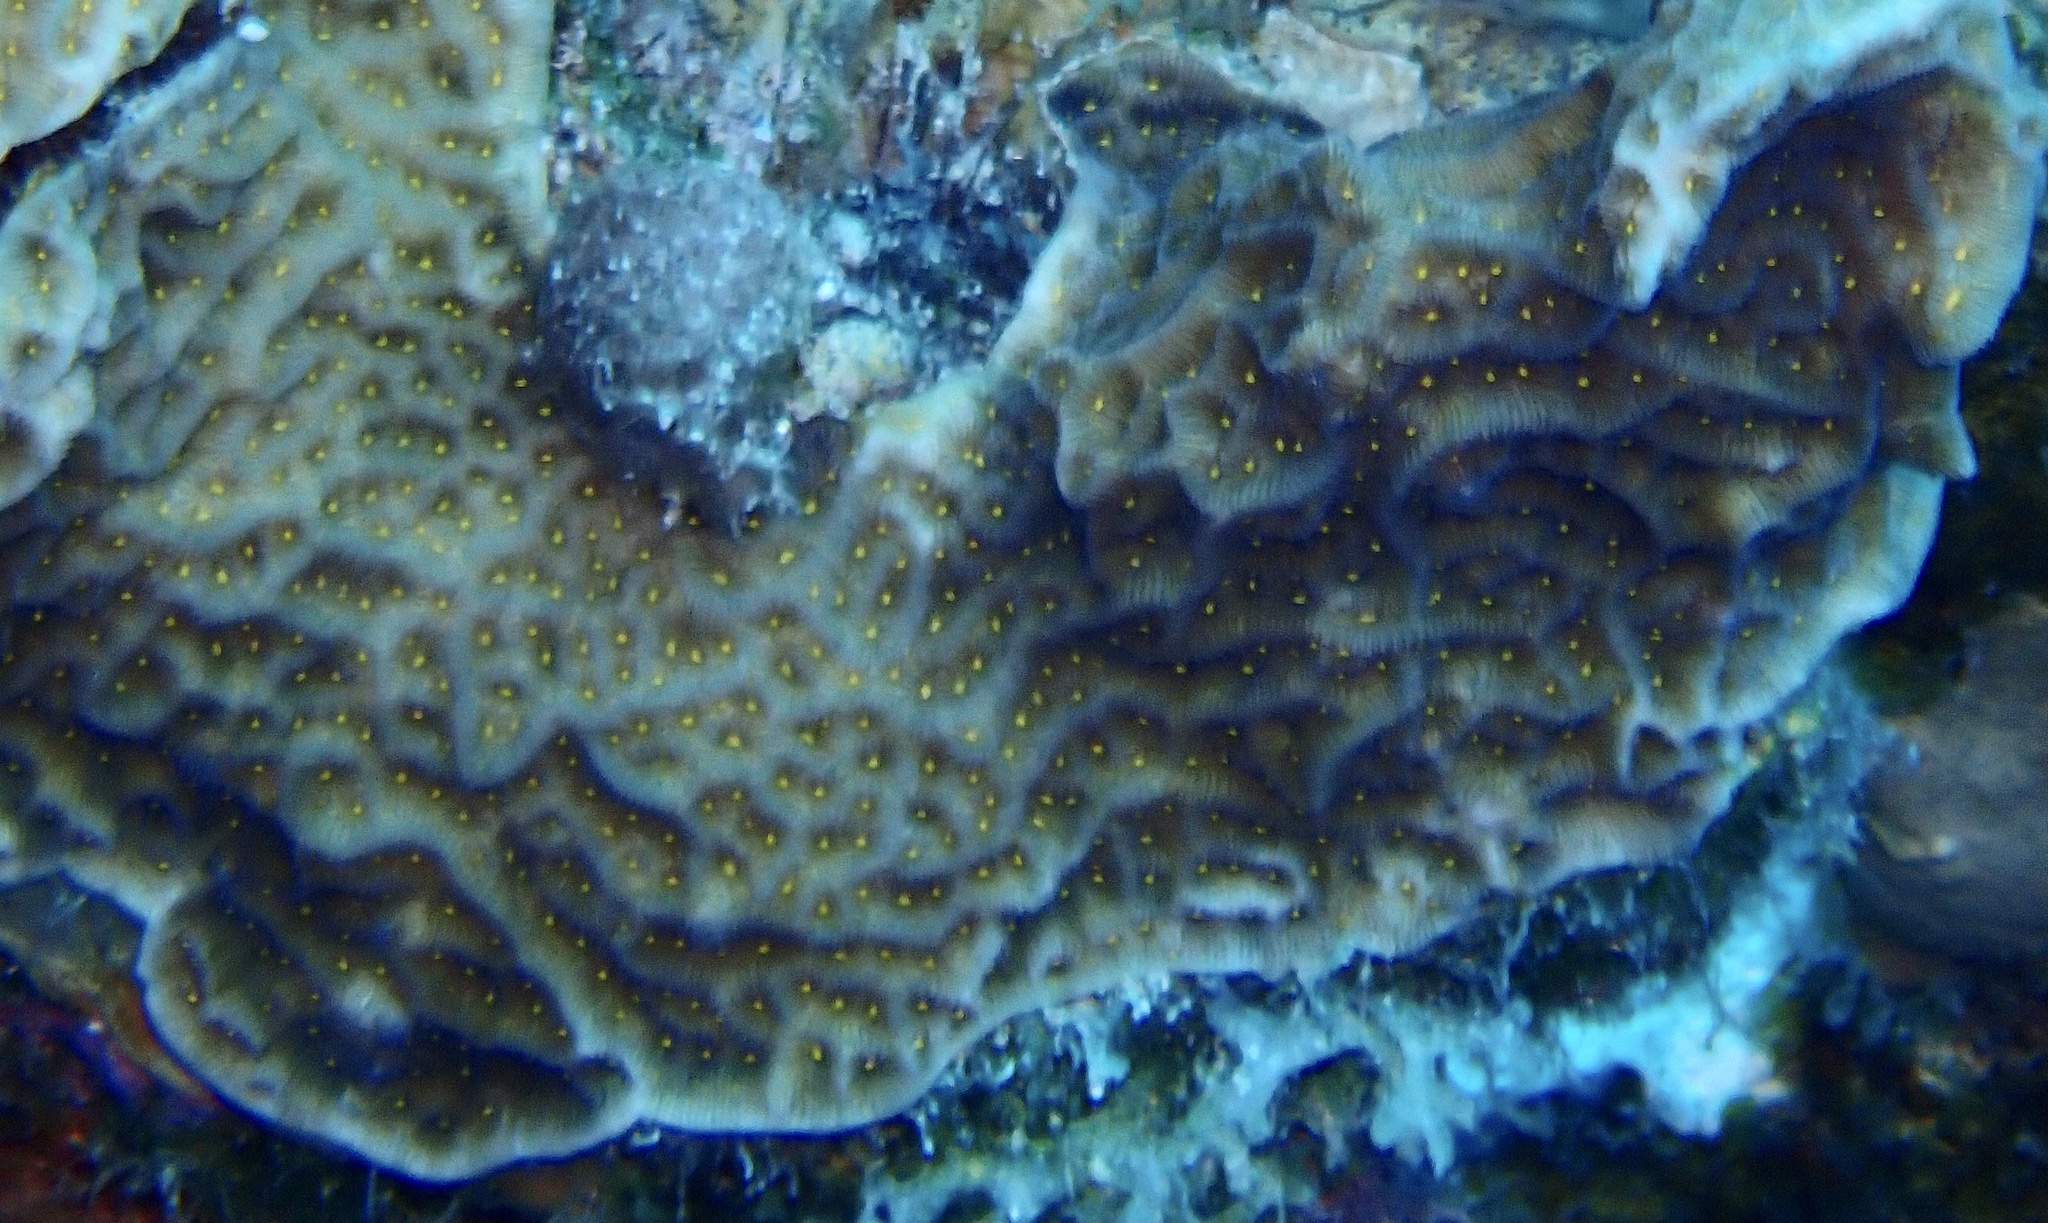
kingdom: Animalia
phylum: Cnidaria
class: Anthozoa
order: Scleractinia
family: Agariciidae
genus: Agaricia
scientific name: Agaricia agaricites
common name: Lettuce coral
